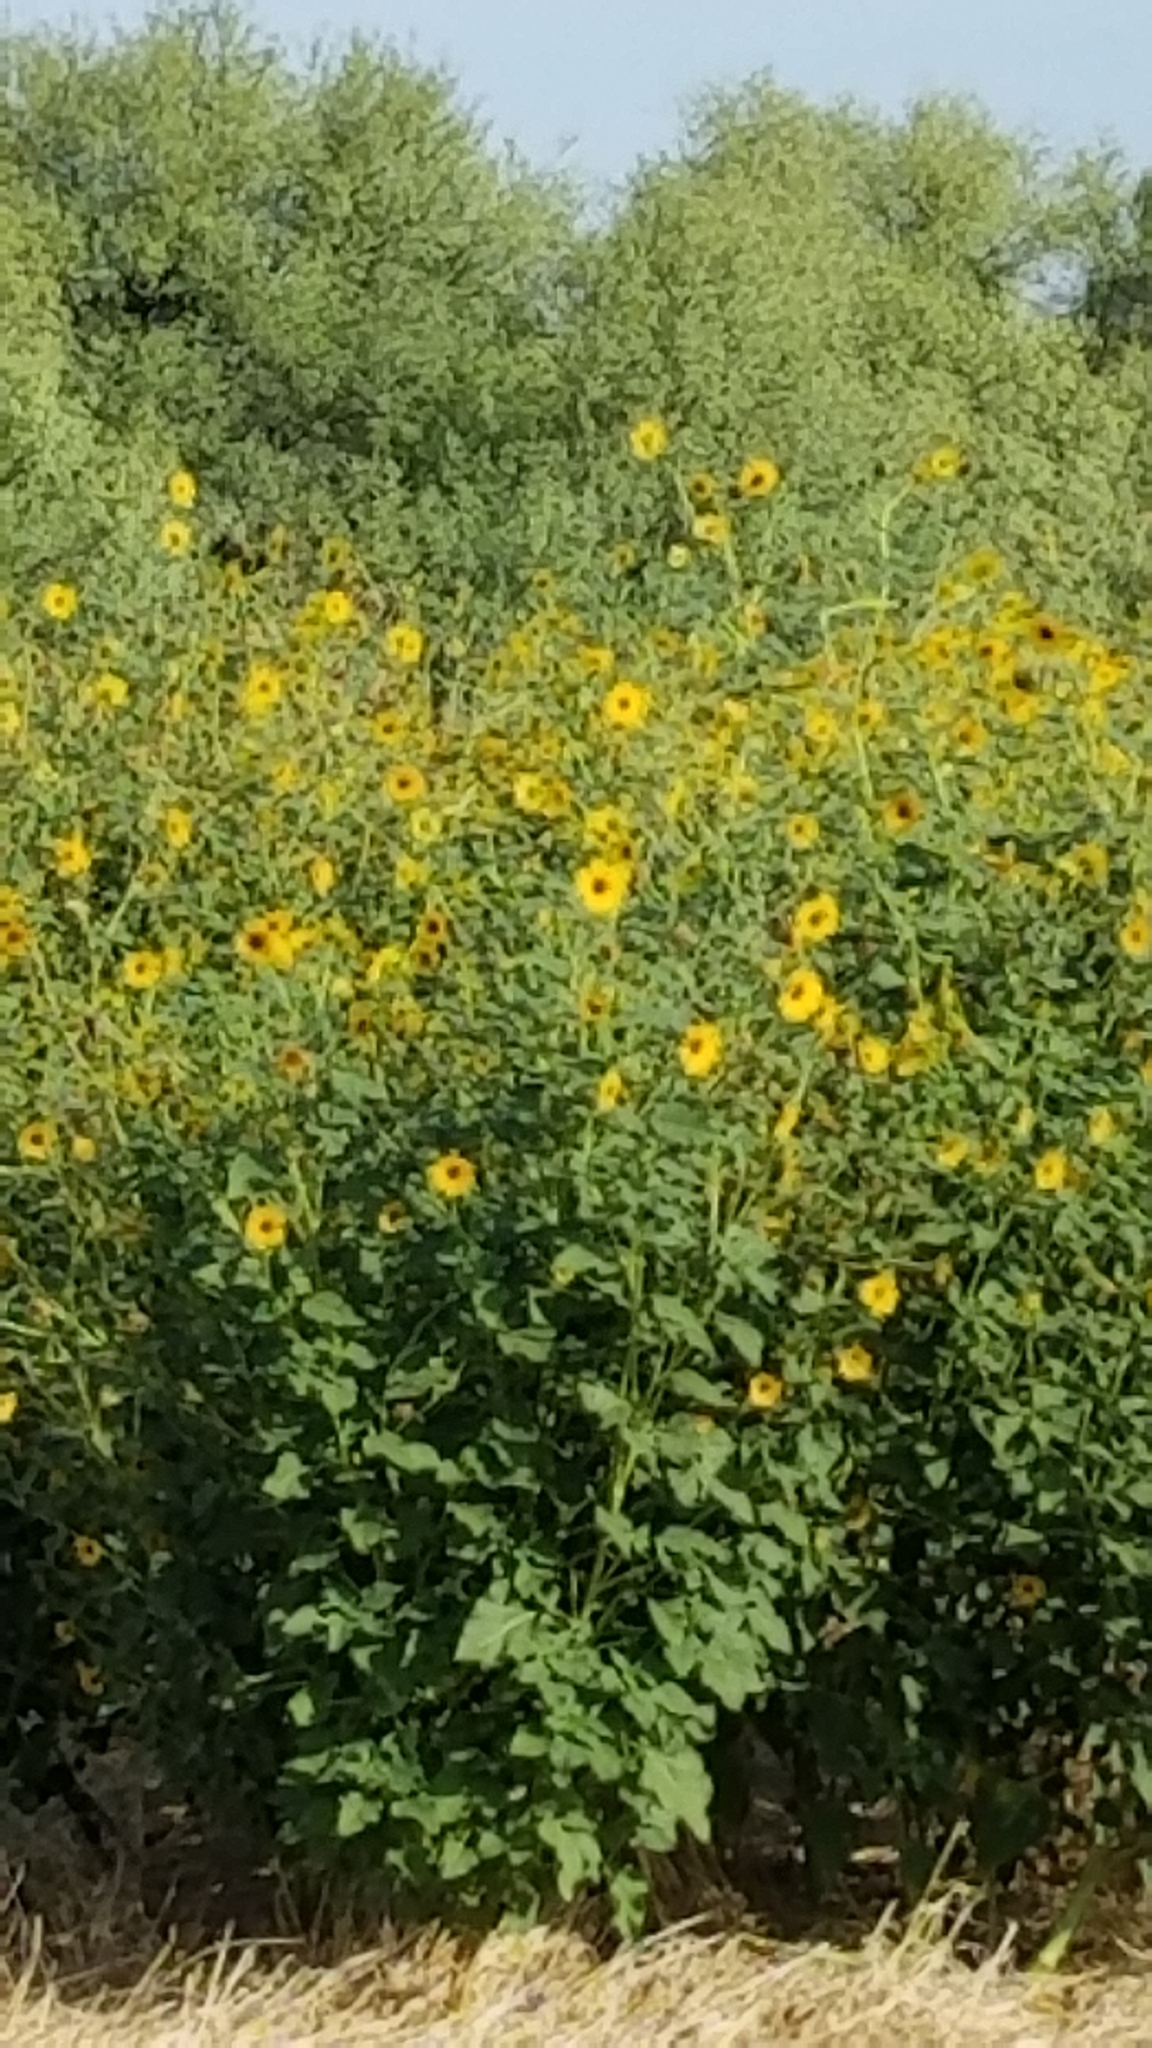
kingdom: Plantae
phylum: Tracheophyta
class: Magnoliopsida
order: Asterales
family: Asteraceae
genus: Helianthus
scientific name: Helianthus annuus
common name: Sunflower
